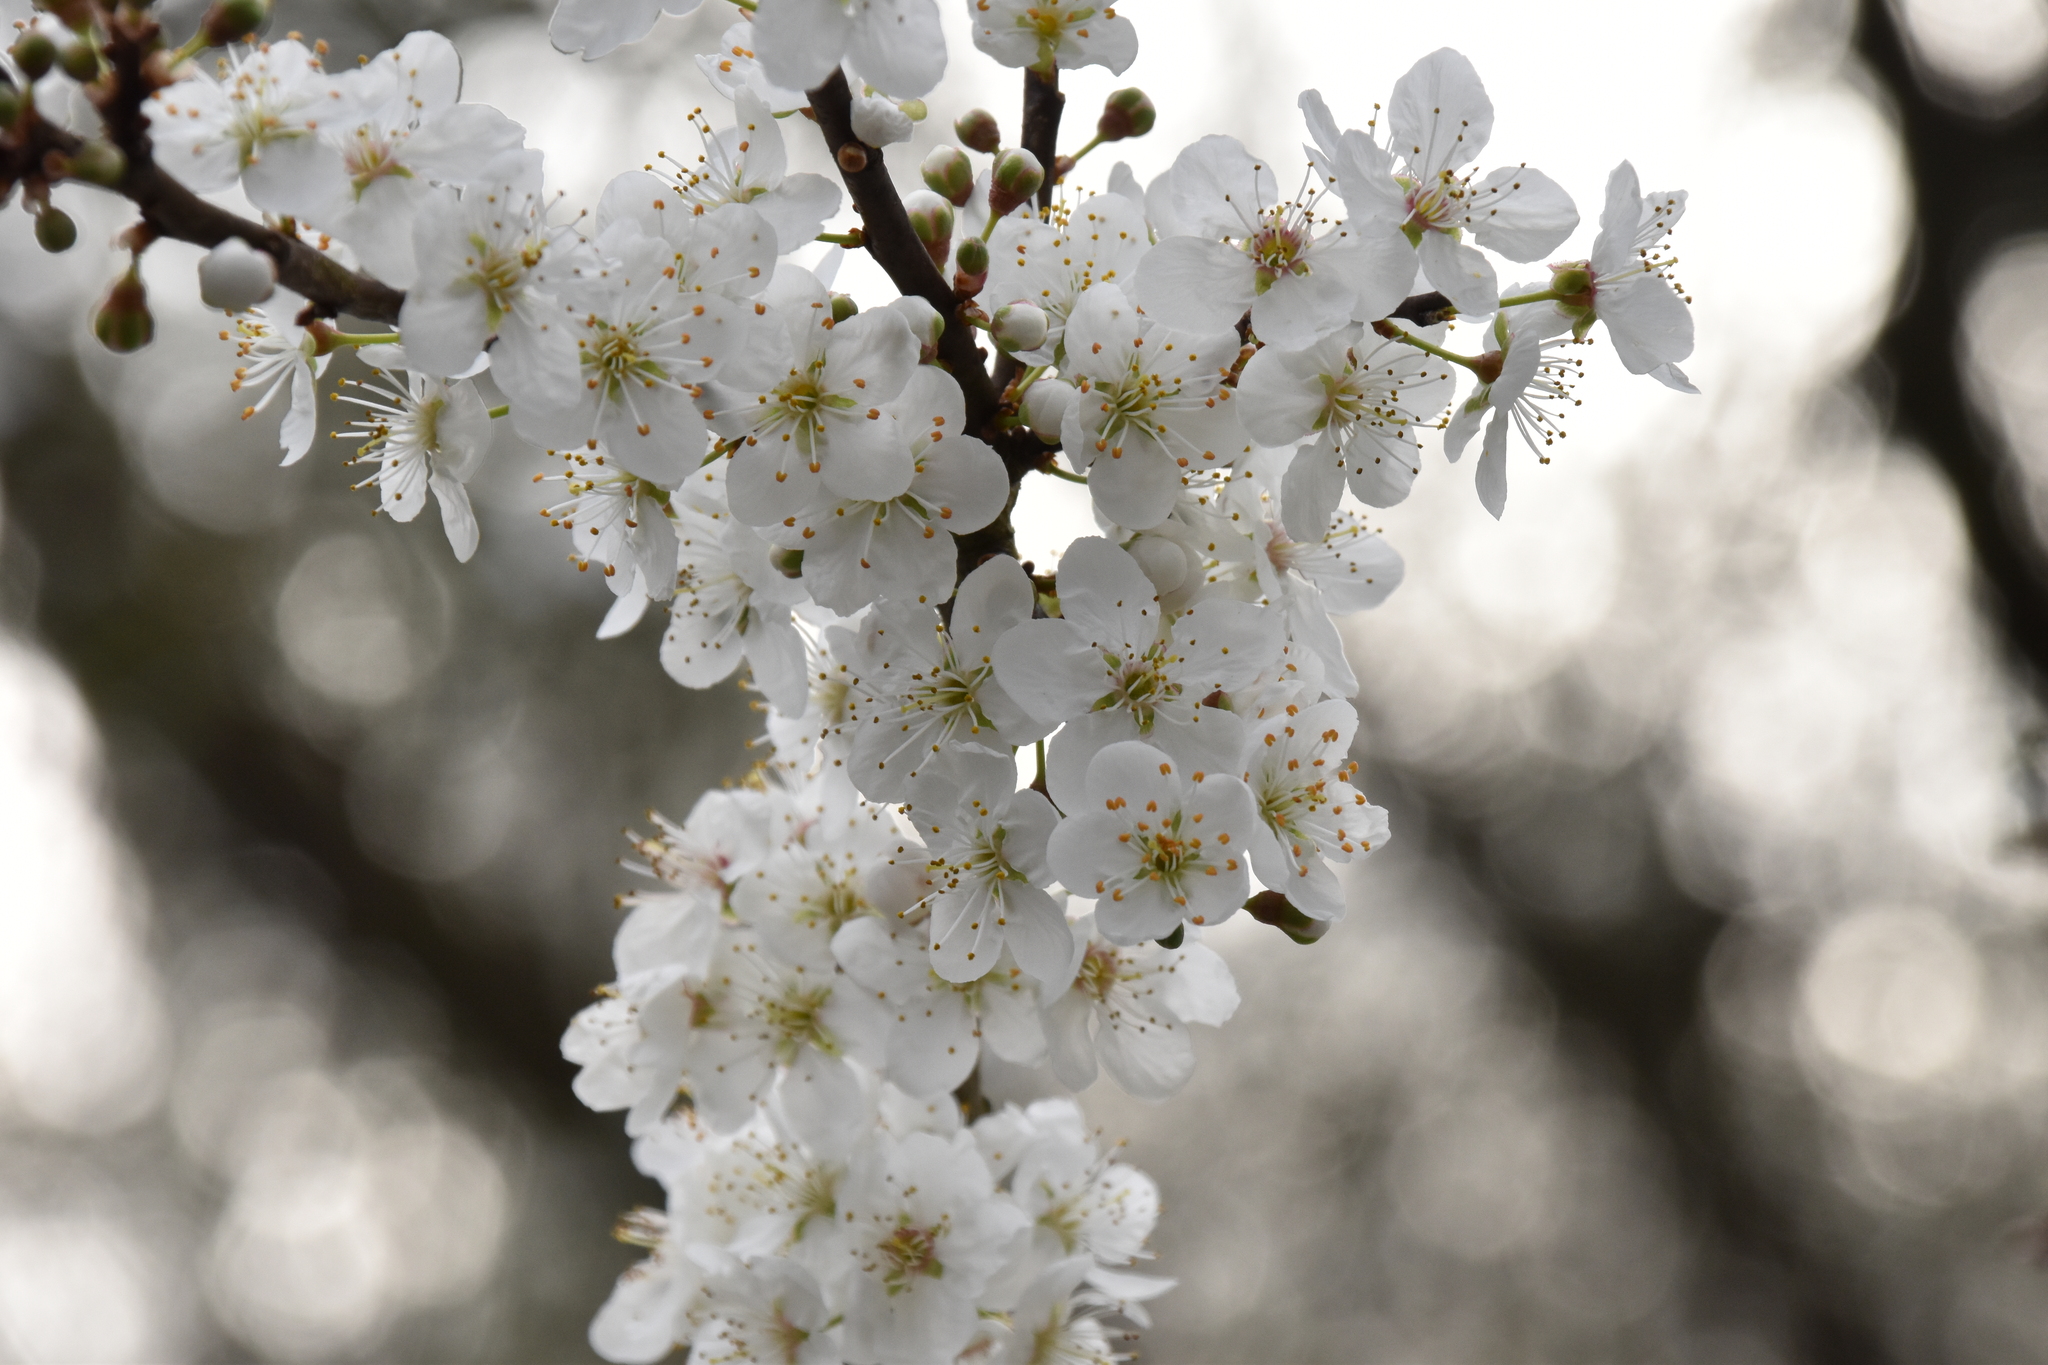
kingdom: Plantae
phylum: Tracheophyta
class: Magnoliopsida
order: Rosales
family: Rosaceae
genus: Prunus
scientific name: Prunus cerasifera
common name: Cherry plum
